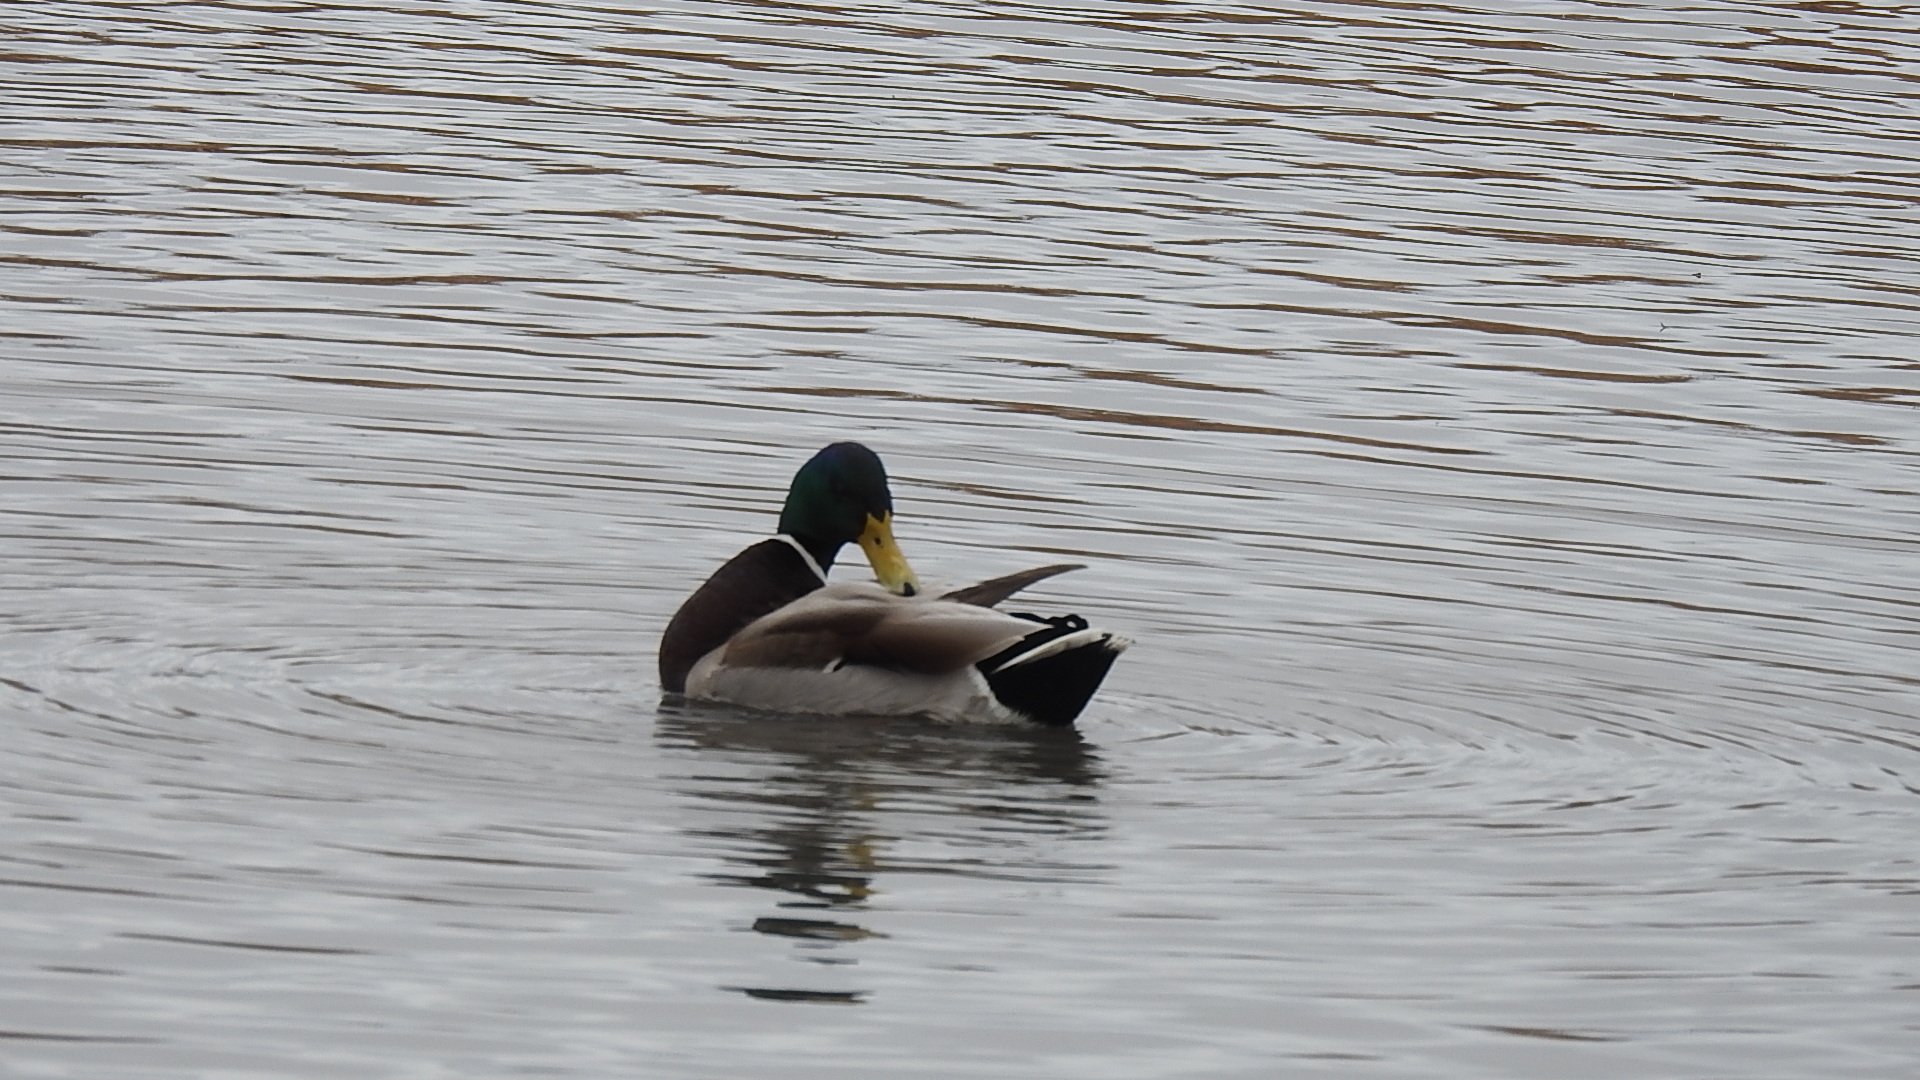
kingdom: Animalia
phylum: Chordata
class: Aves
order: Anseriformes
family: Anatidae
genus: Anas
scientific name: Anas platyrhynchos
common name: Mallard
